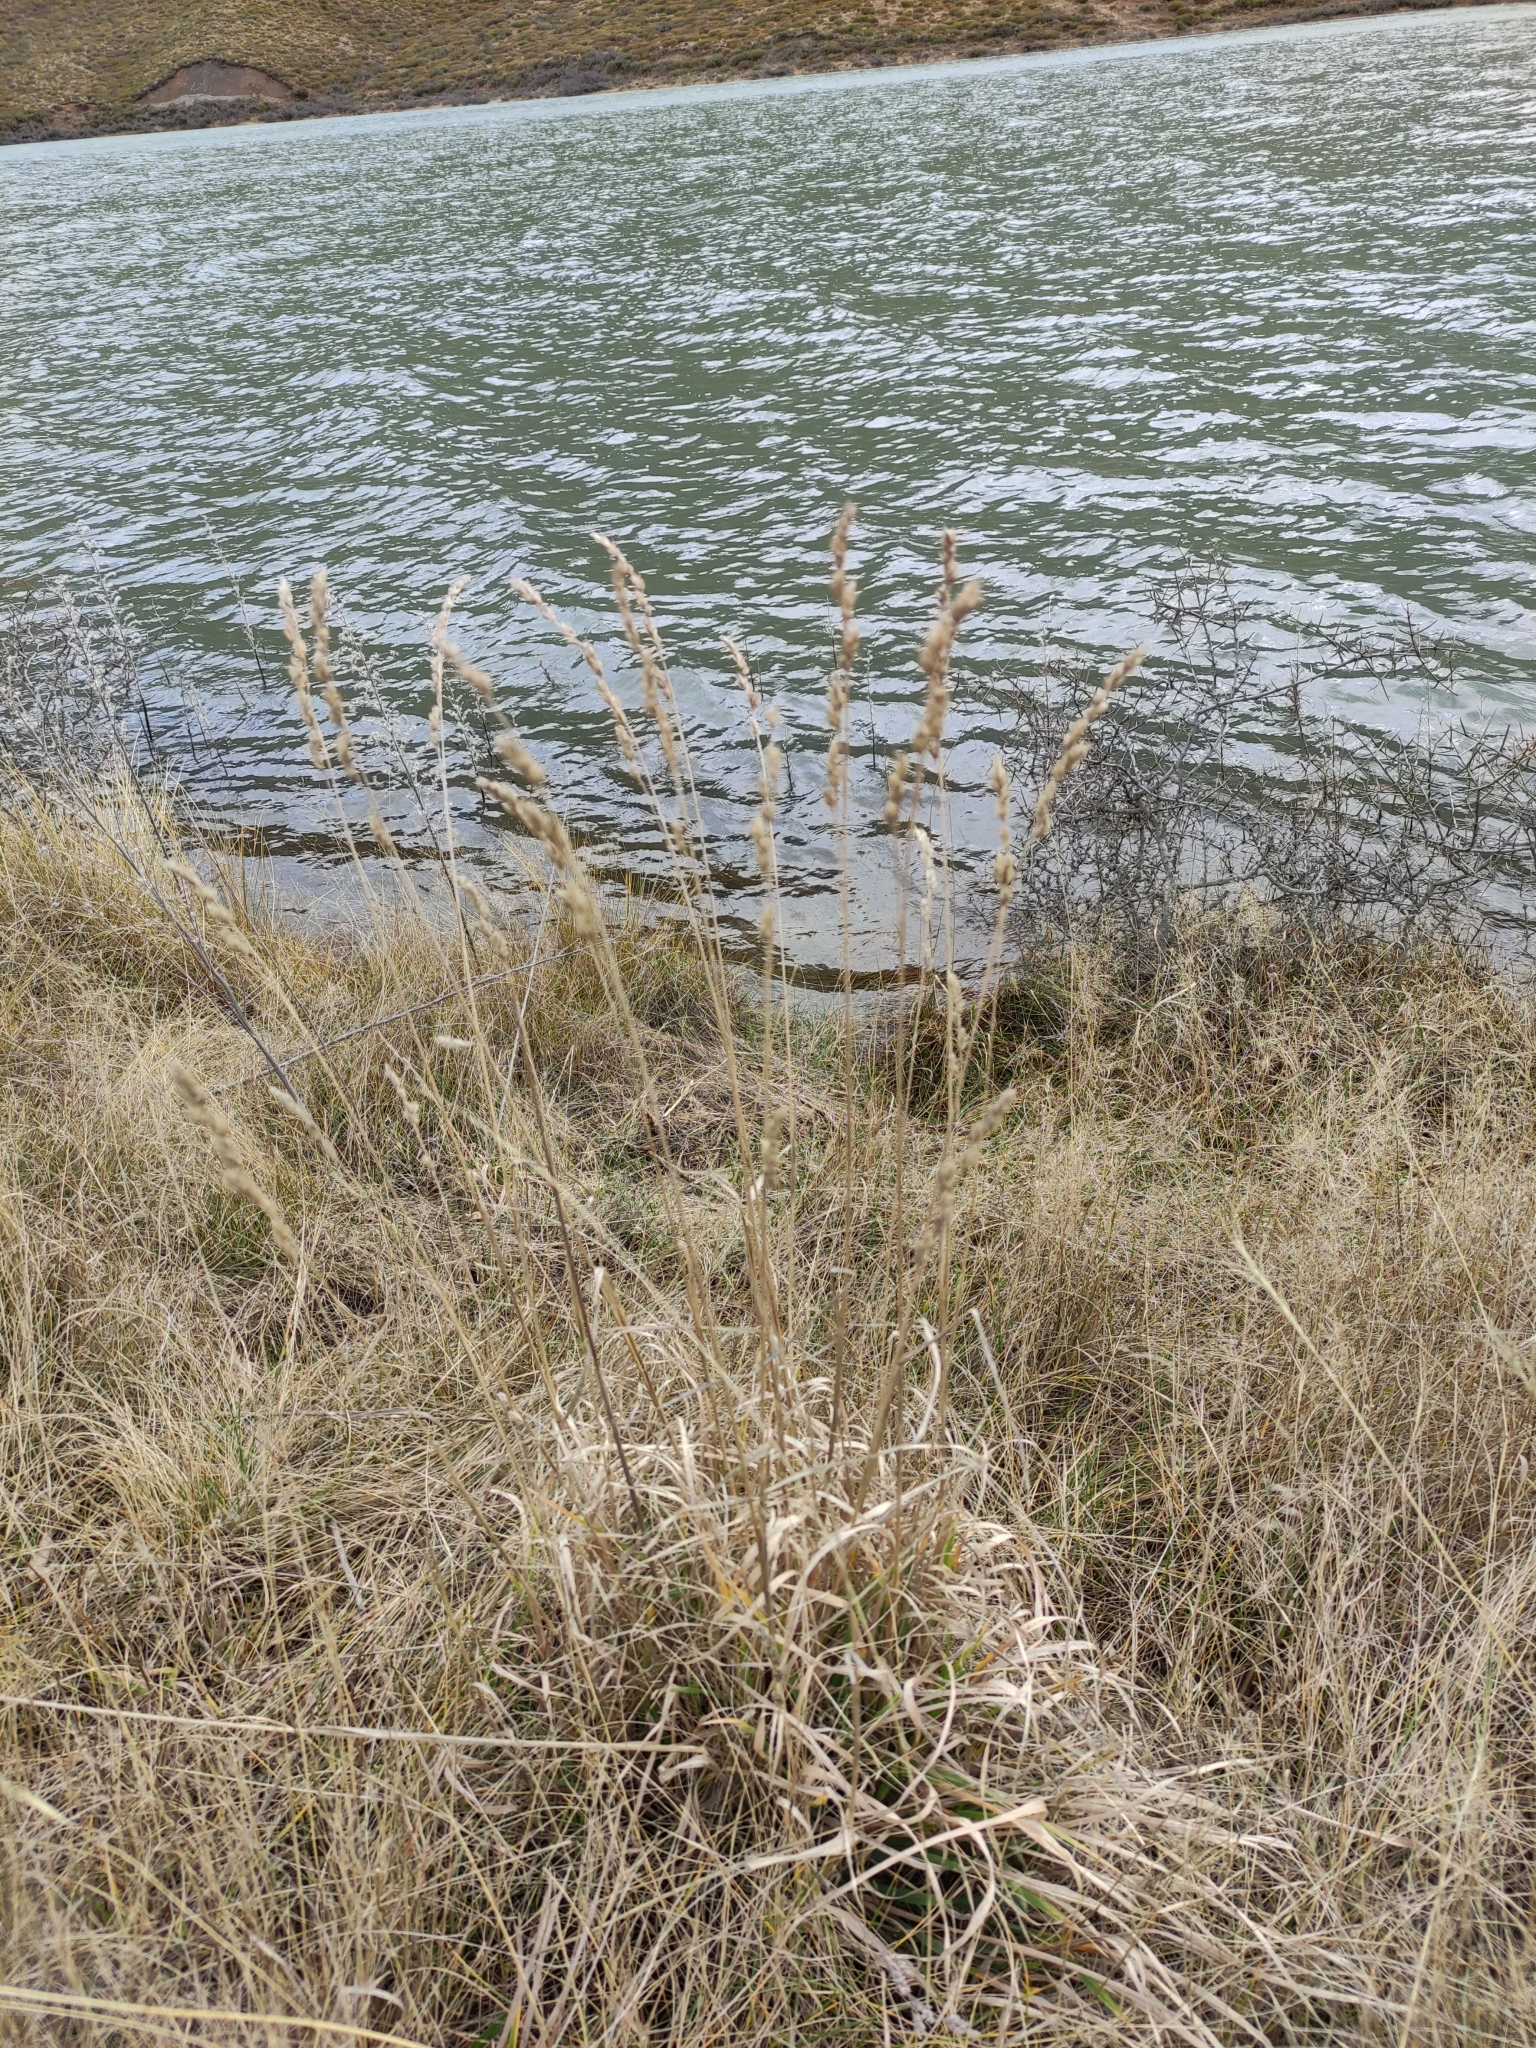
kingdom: Plantae
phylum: Tracheophyta
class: Liliopsida
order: Poales
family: Poaceae
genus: Dactylis
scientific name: Dactylis glomerata
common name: Orchardgrass
